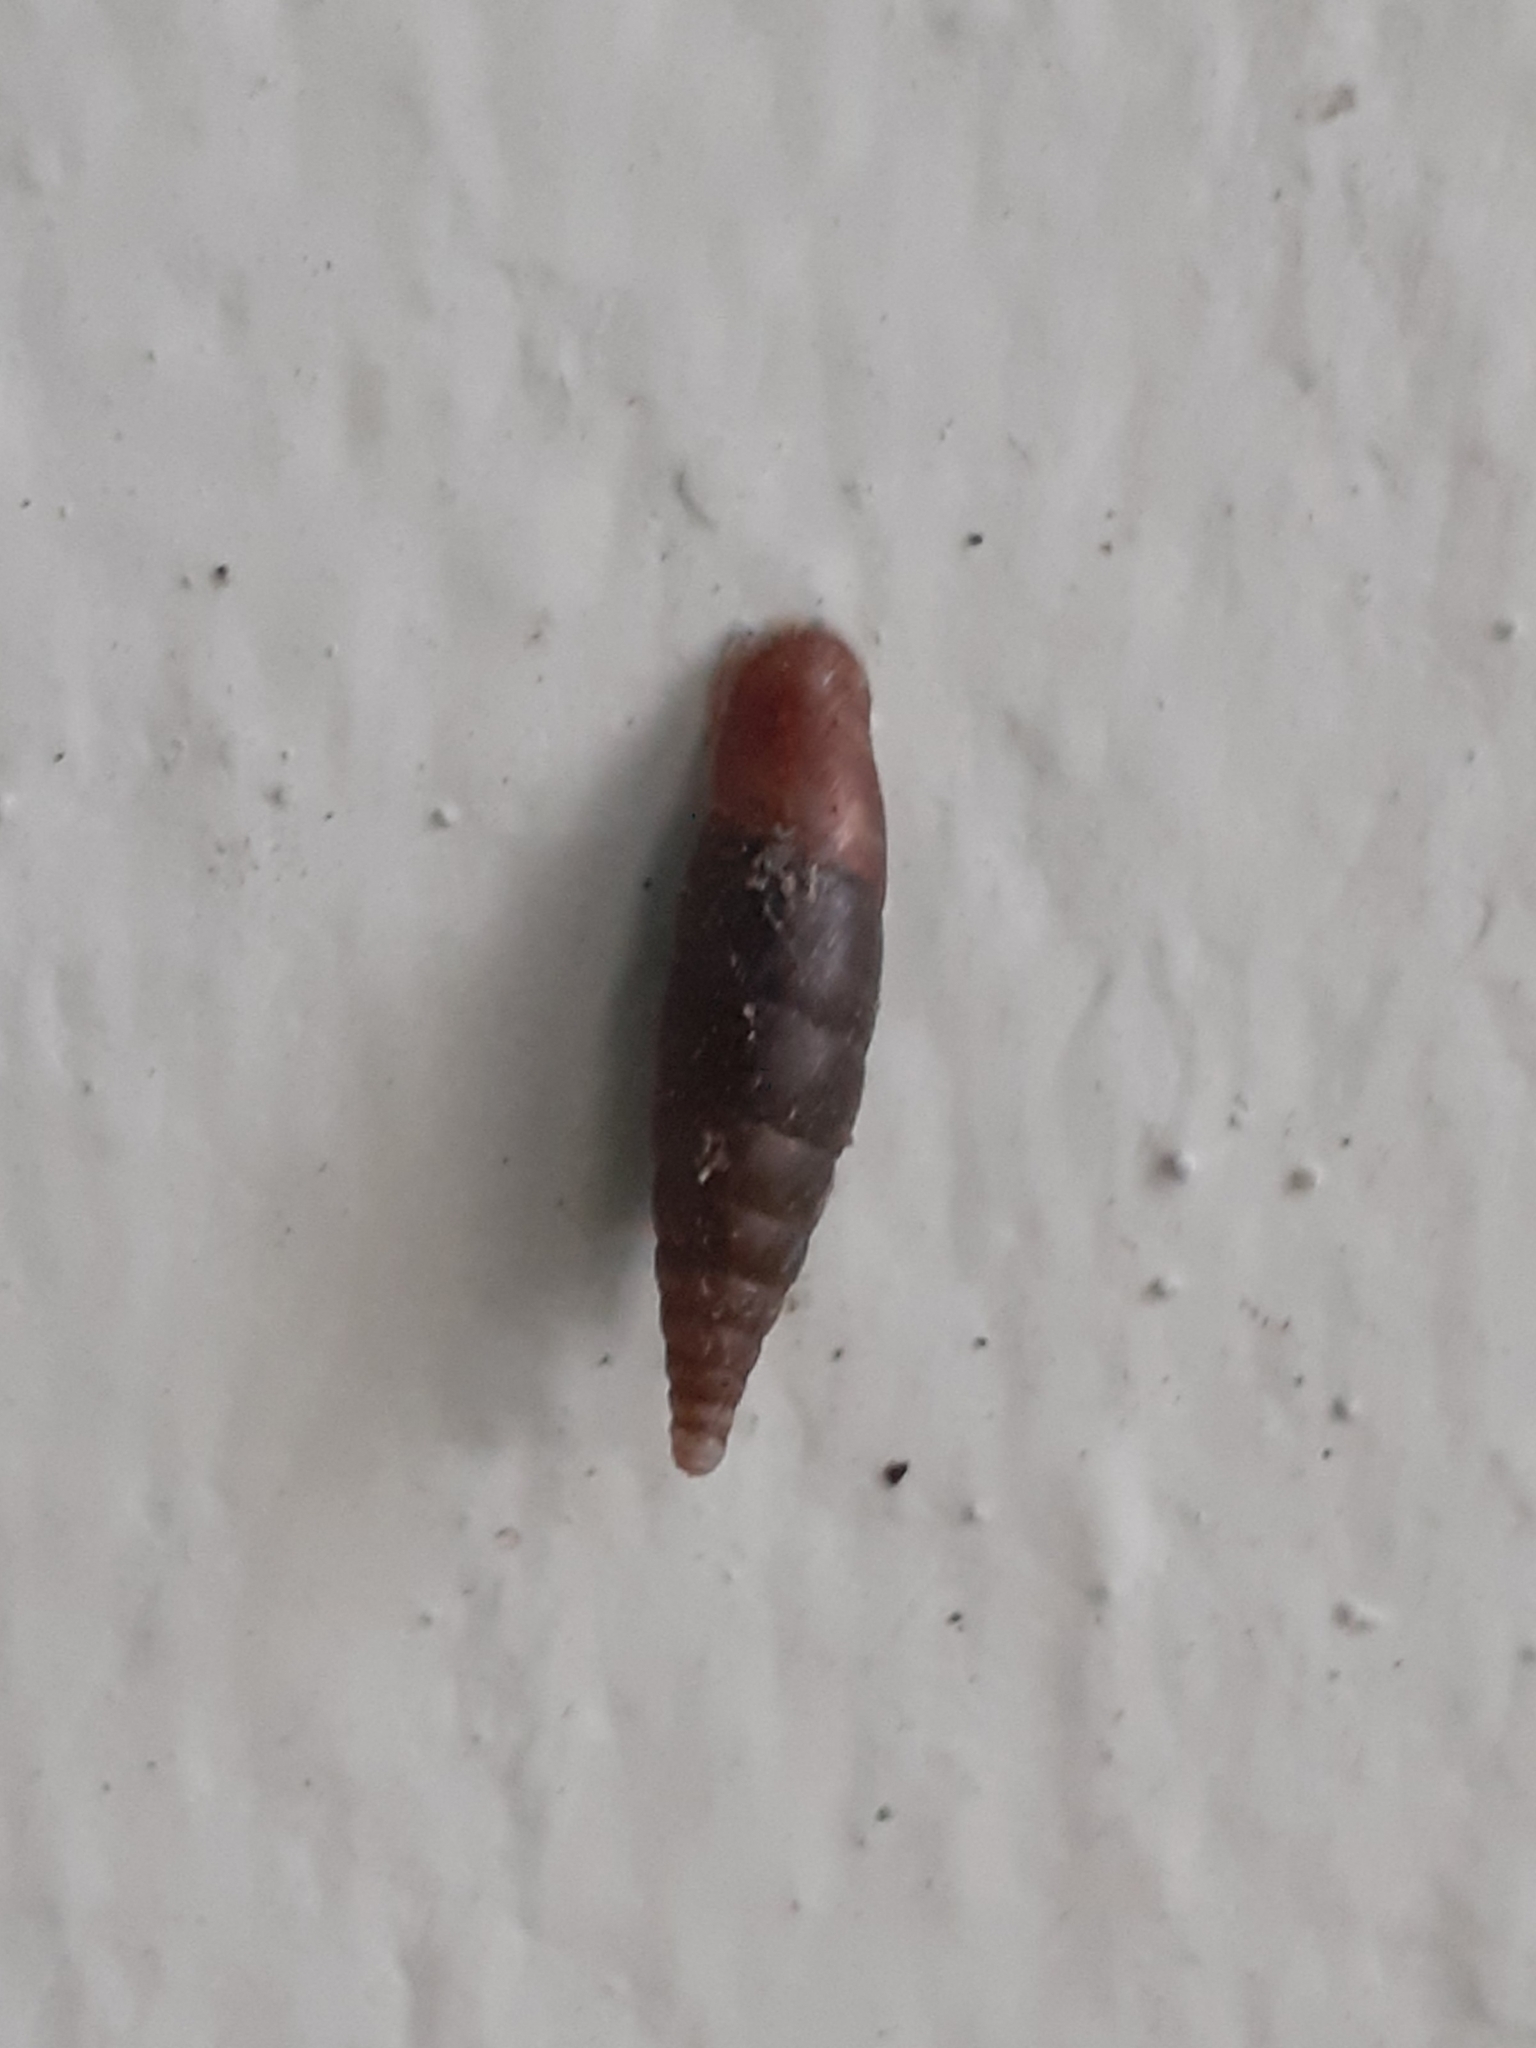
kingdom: Animalia
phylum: Mollusca
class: Gastropoda
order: Stylommatophora
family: Clausiliidae
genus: Cochlodina
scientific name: Cochlodina laminata
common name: Plaited door snail
